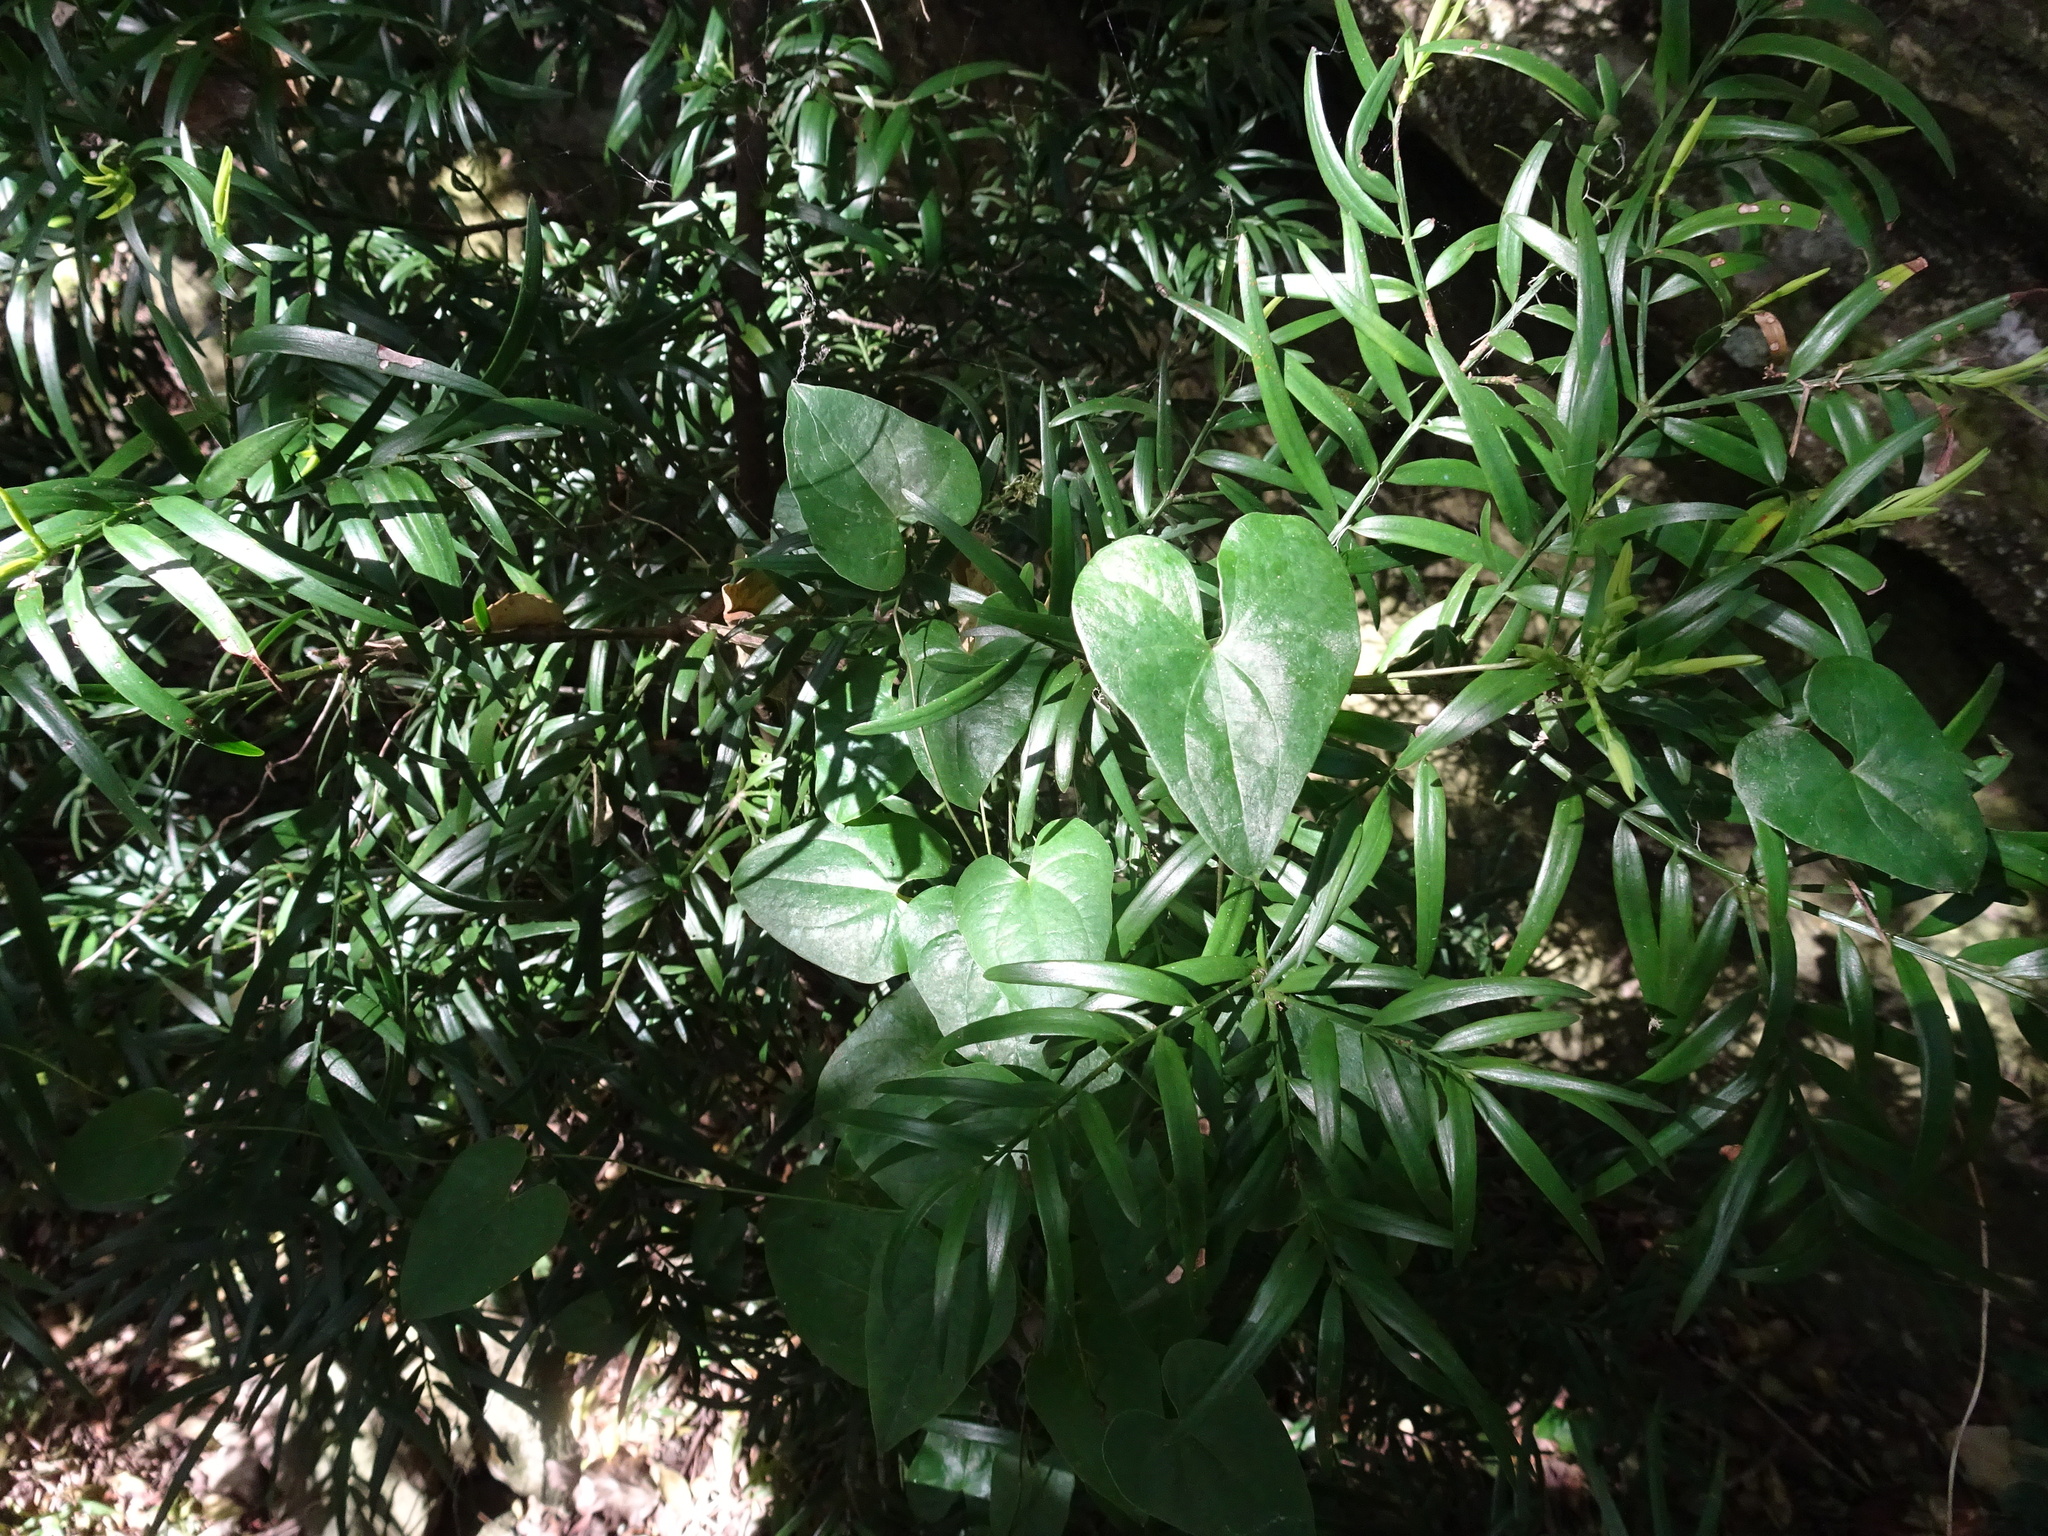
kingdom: Plantae
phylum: Tracheophyta
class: Liliopsida
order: Dioscoreales
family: Dioscoreaceae
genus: Dioscorea
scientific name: Dioscorea sylvatica
